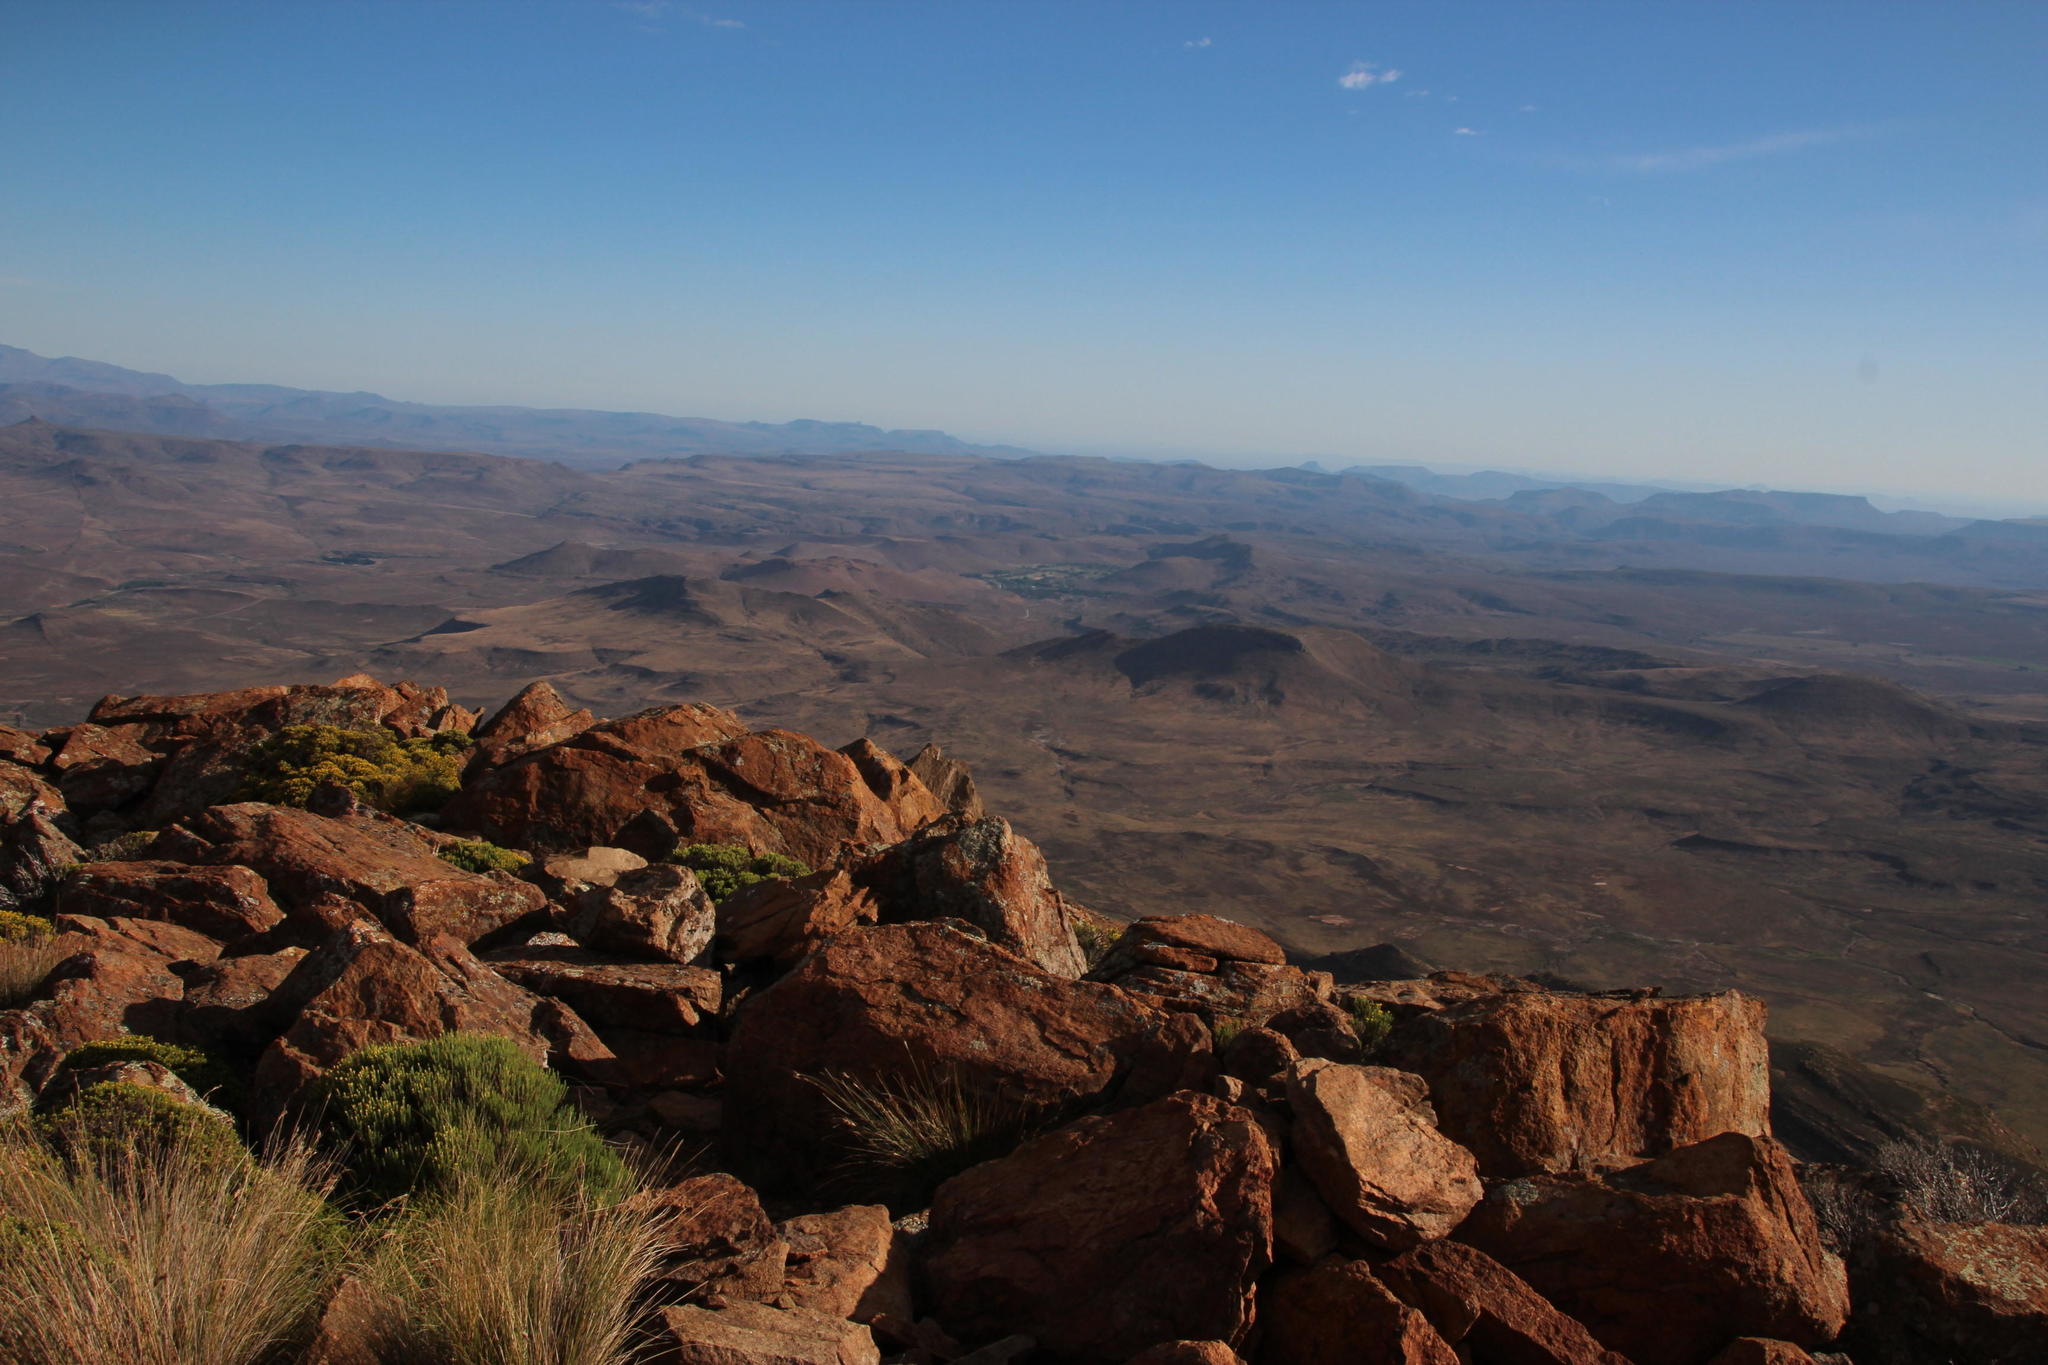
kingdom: Plantae
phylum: Tracheophyta
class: Magnoliopsida
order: Asterales
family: Asteraceae
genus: Helichrysum
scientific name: Helichrysum trilineatum
